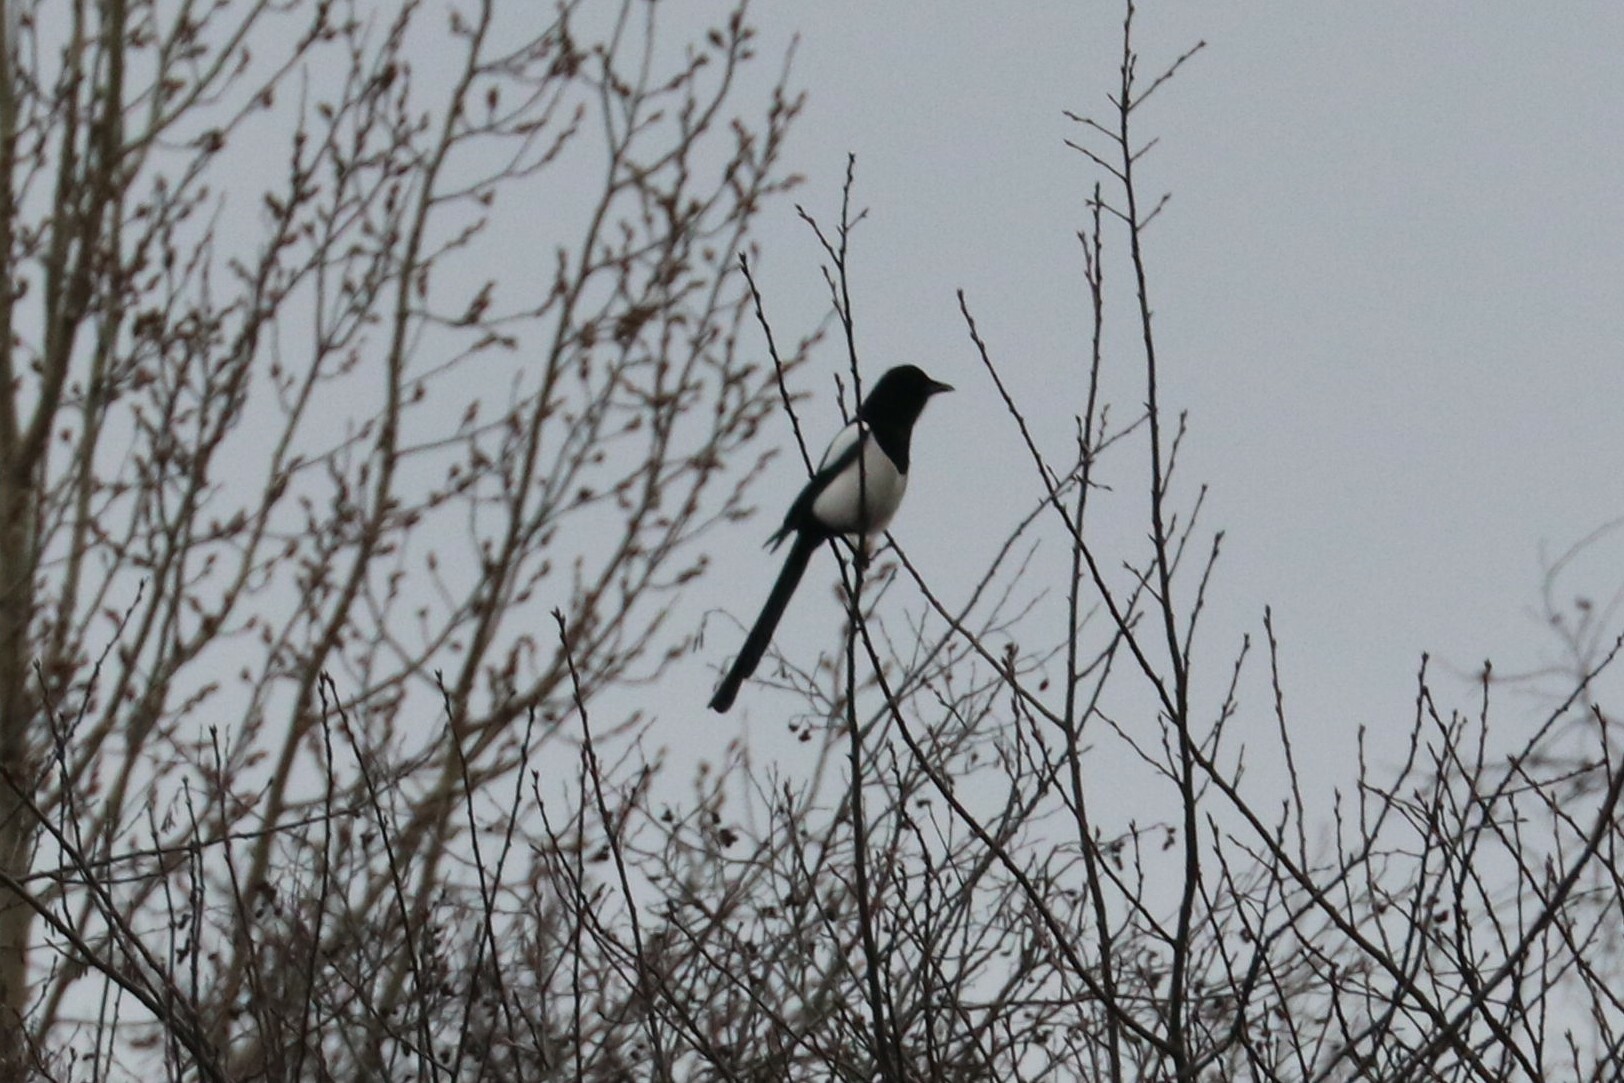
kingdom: Animalia
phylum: Chordata
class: Aves
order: Passeriformes
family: Corvidae
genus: Pica
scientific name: Pica pica
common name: Eurasian magpie
